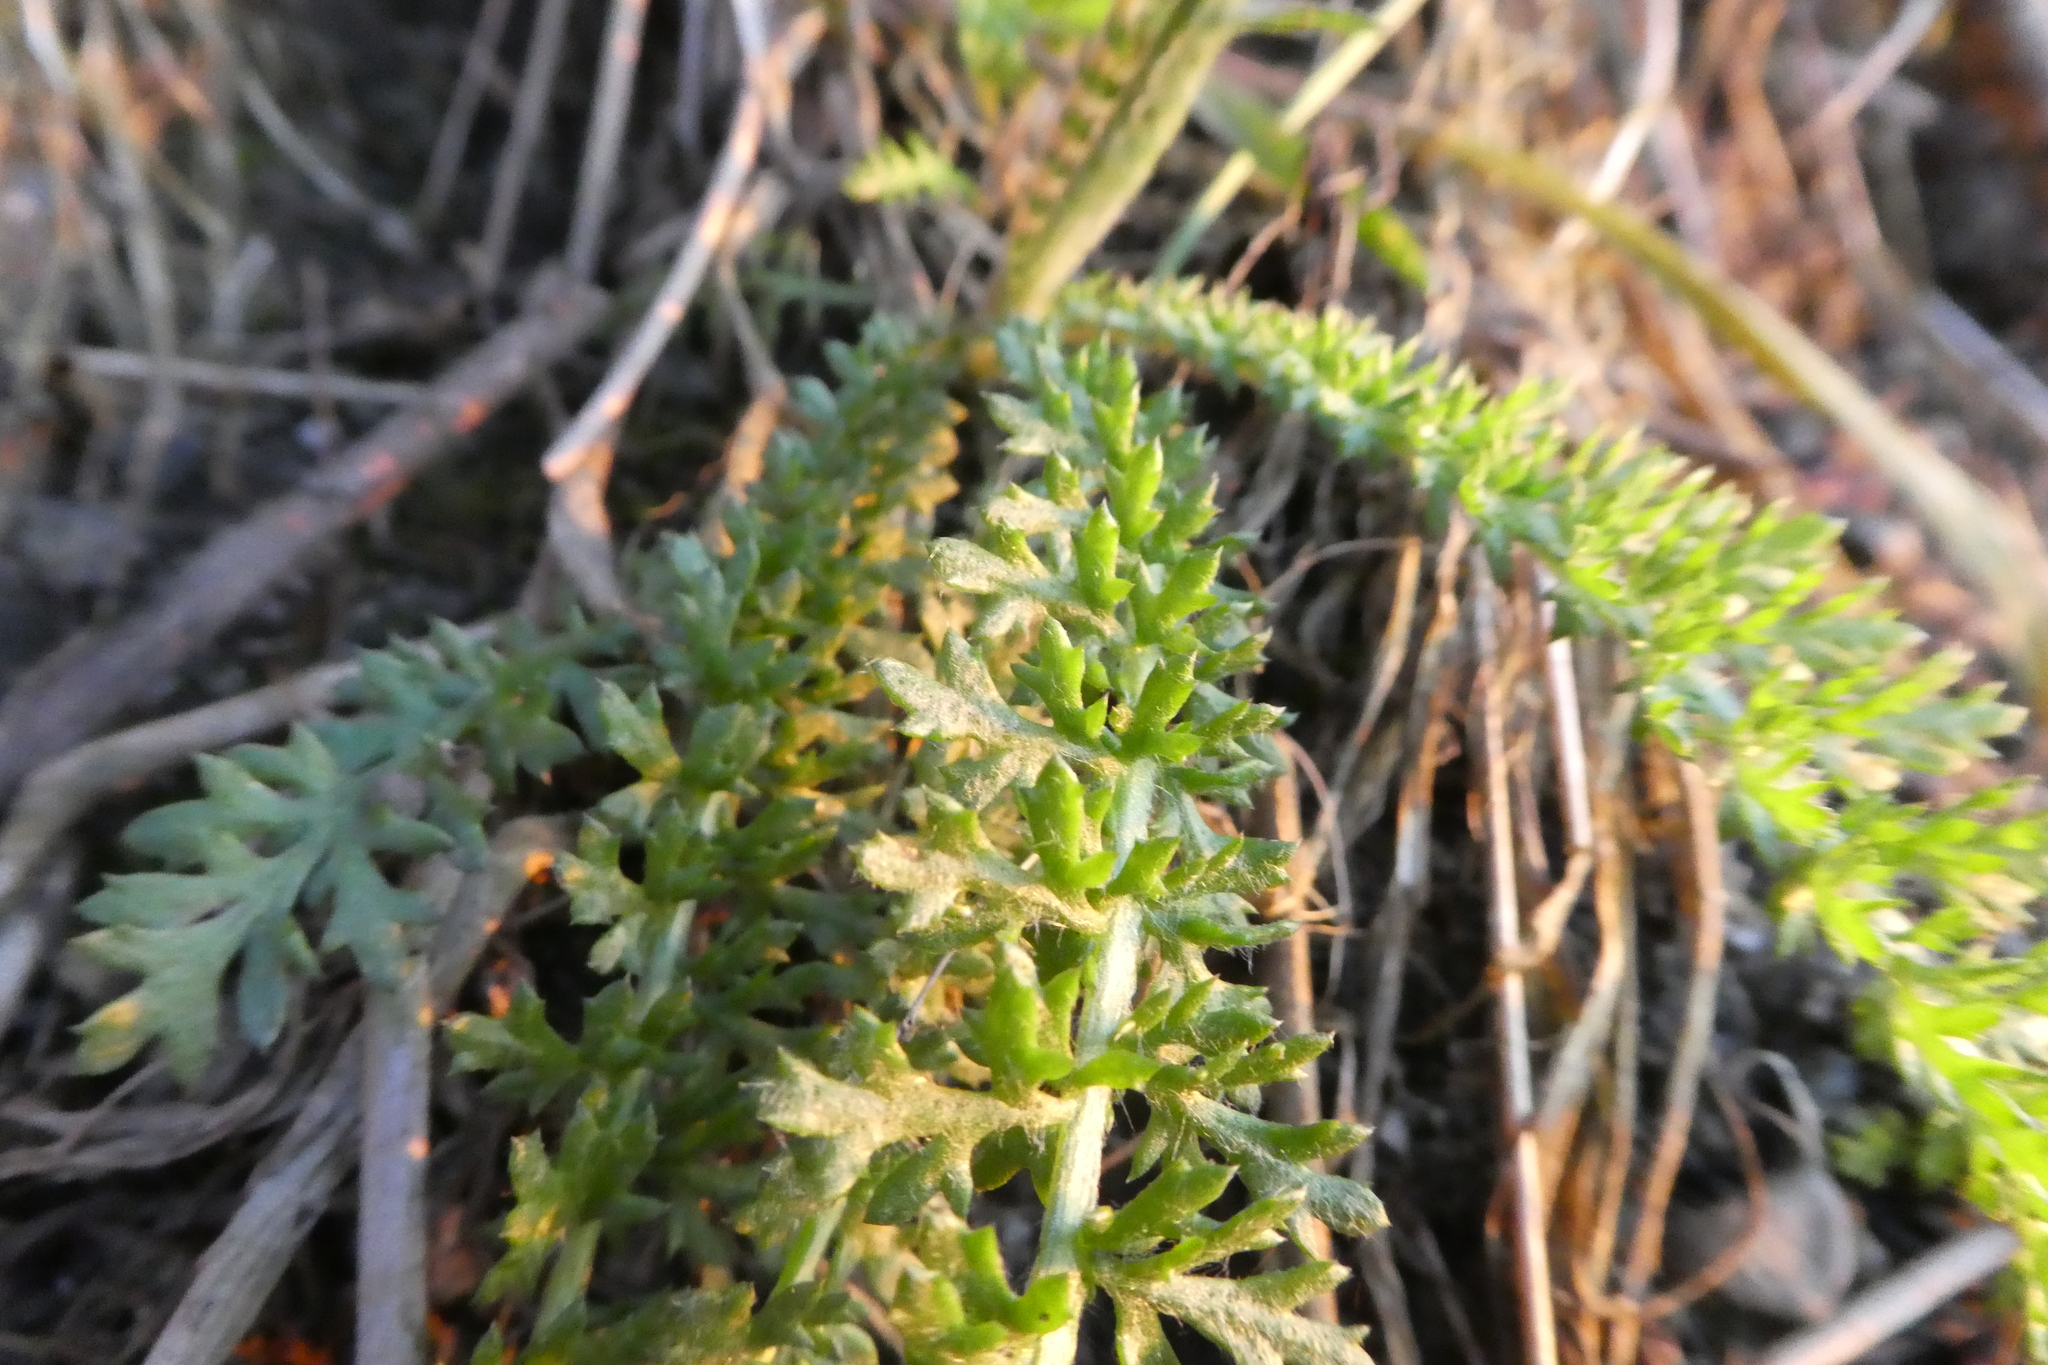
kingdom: Plantae
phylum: Tracheophyta
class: Magnoliopsida
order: Asterales
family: Asteraceae
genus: Achillea
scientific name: Achillea millefolium
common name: Yarrow
